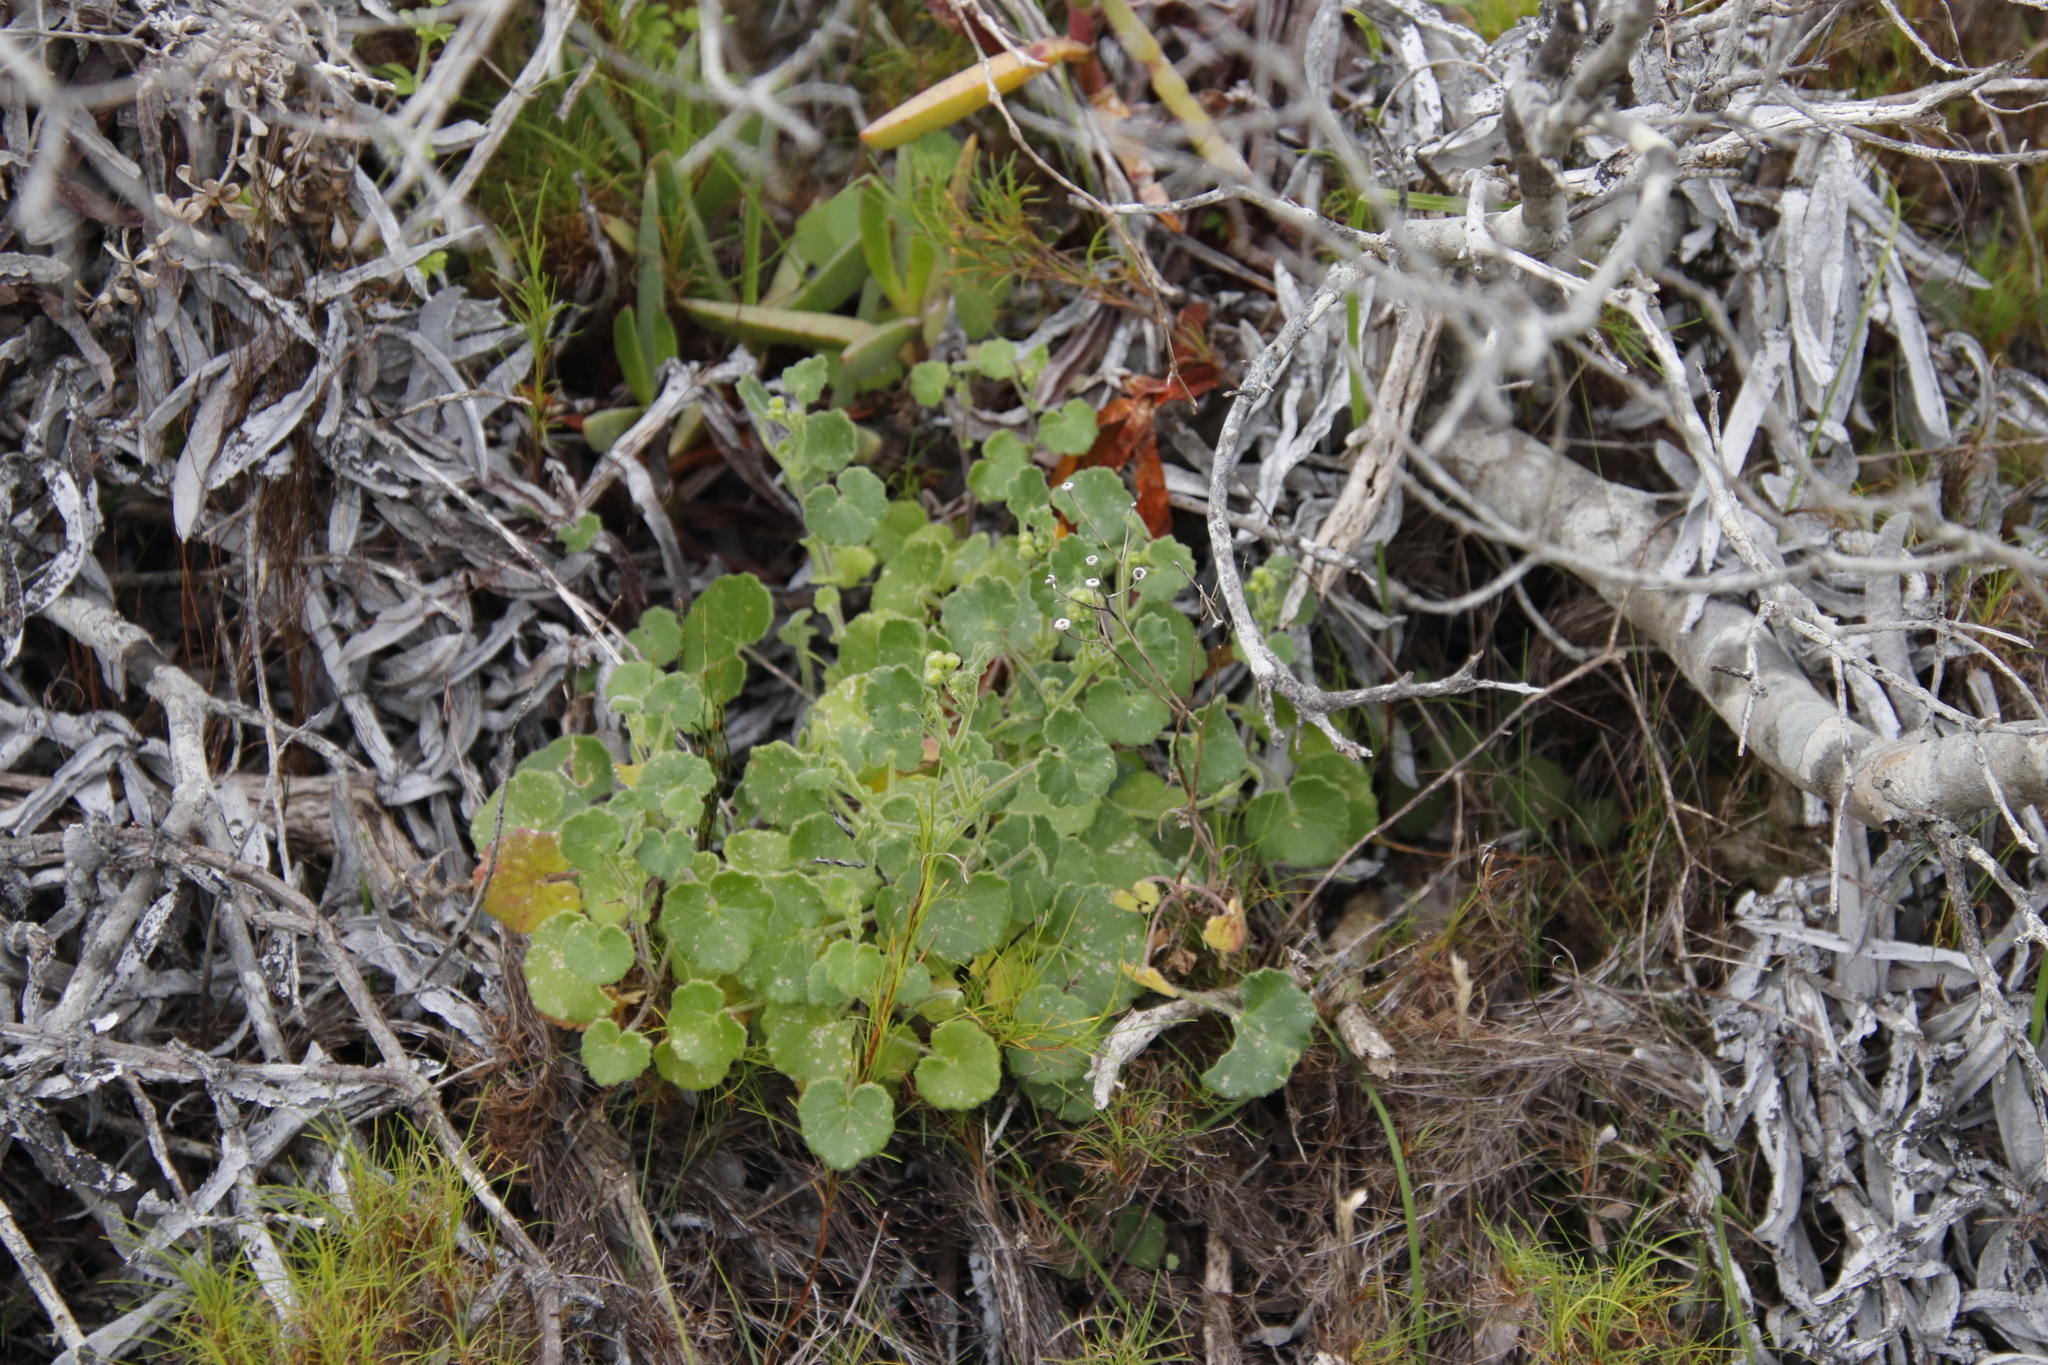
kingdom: Plantae
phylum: Tracheophyta
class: Magnoliopsida
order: Asterales
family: Asteraceae
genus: Cineraria
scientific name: Cineraria geifolia
